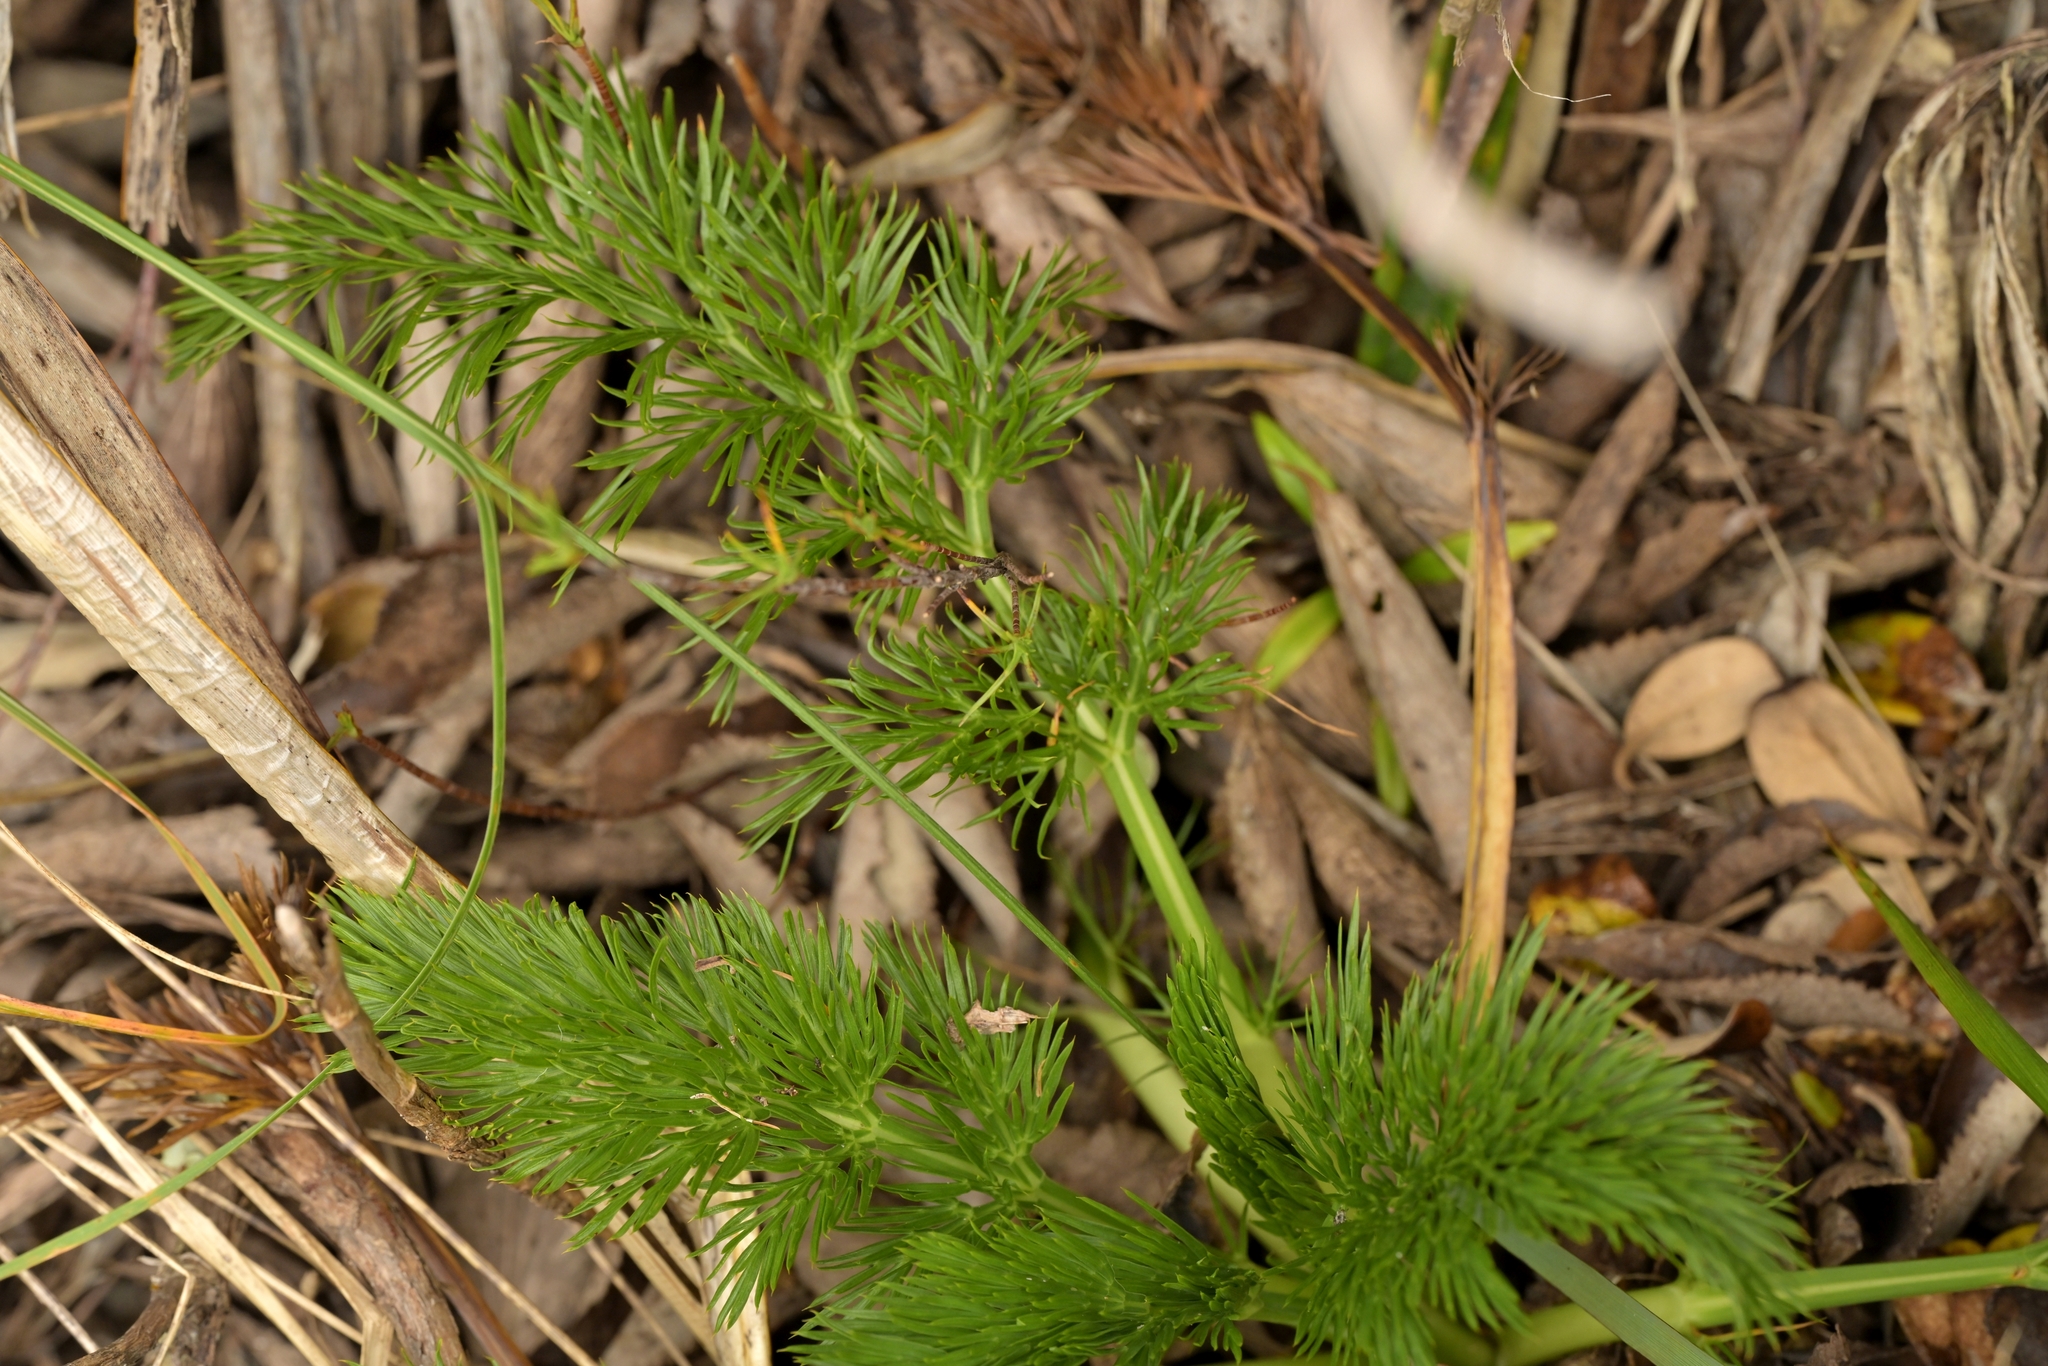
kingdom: Plantae
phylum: Tracheophyta
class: Magnoliopsida
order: Apiales
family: Apiaceae
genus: Aciphylla
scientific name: Aciphylla dissecta
